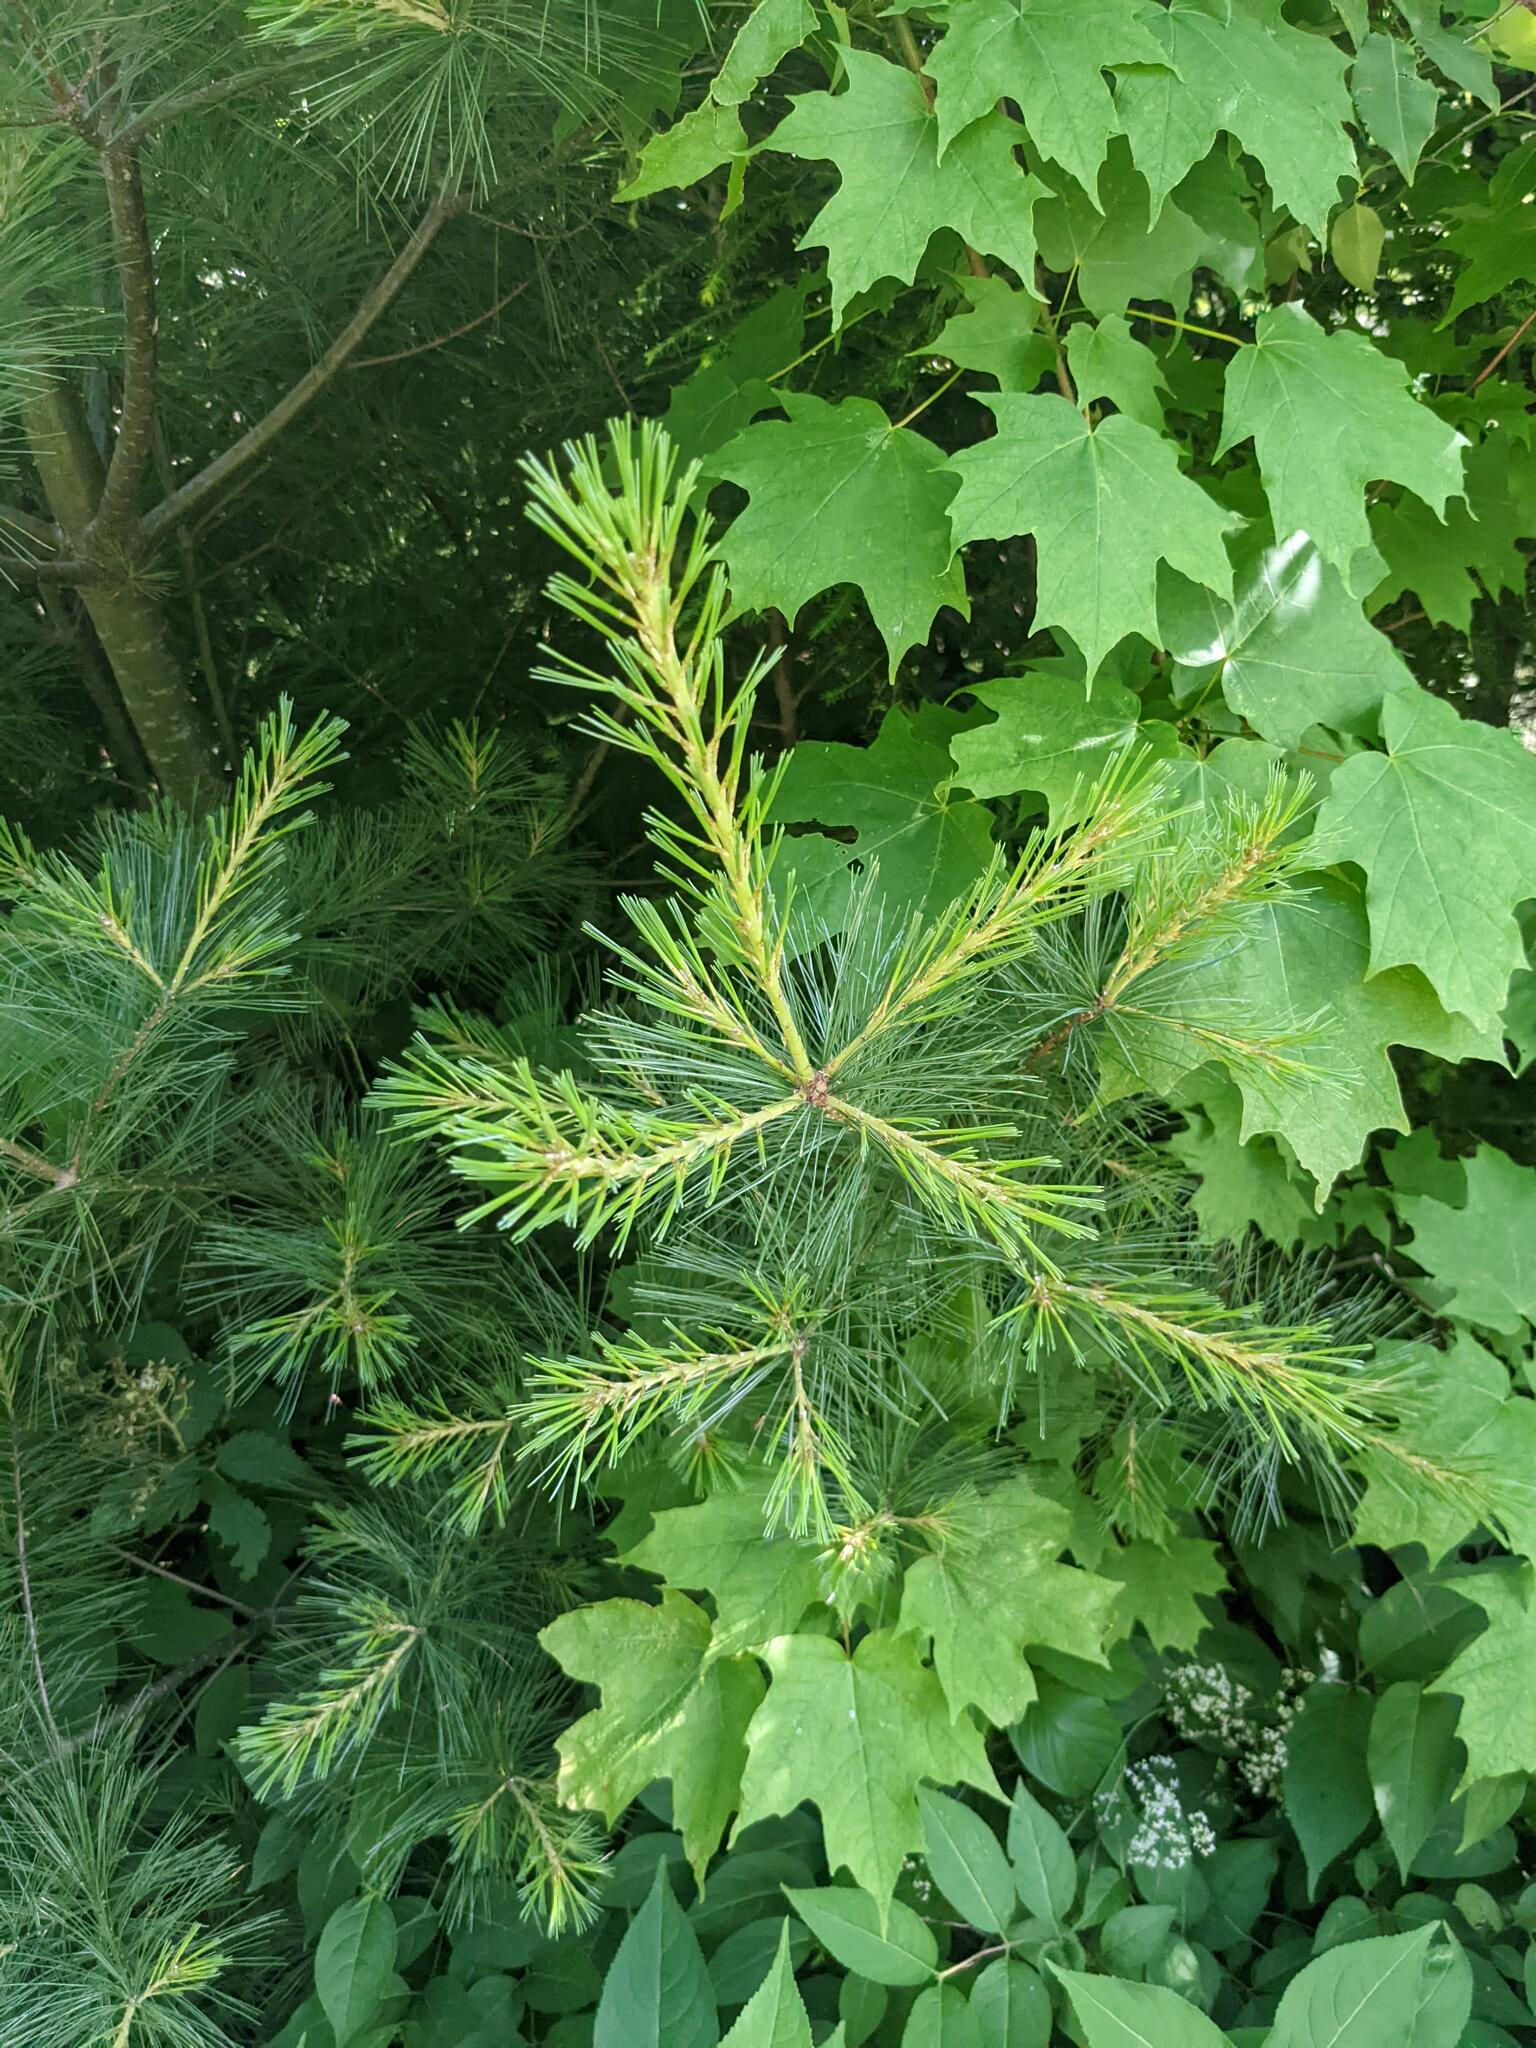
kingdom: Plantae
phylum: Tracheophyta
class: Pinopsida
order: Pinales
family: Pinaceae
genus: Pinus
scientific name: Pinus strobus
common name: Weymouth pine
